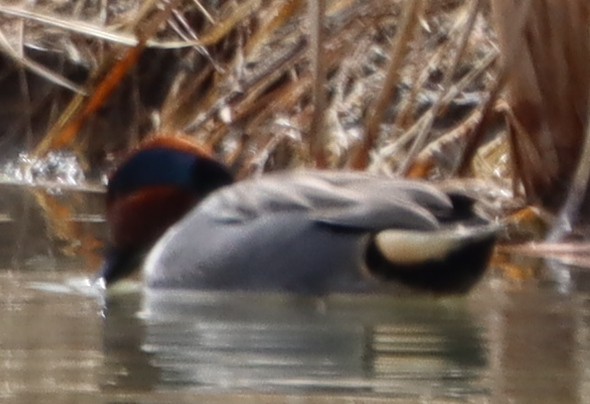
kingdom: Animalia
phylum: Chordata
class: Aves
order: Anseriformes
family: Anatidae
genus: Anas
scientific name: Anas crecca
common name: Eurasian teal
